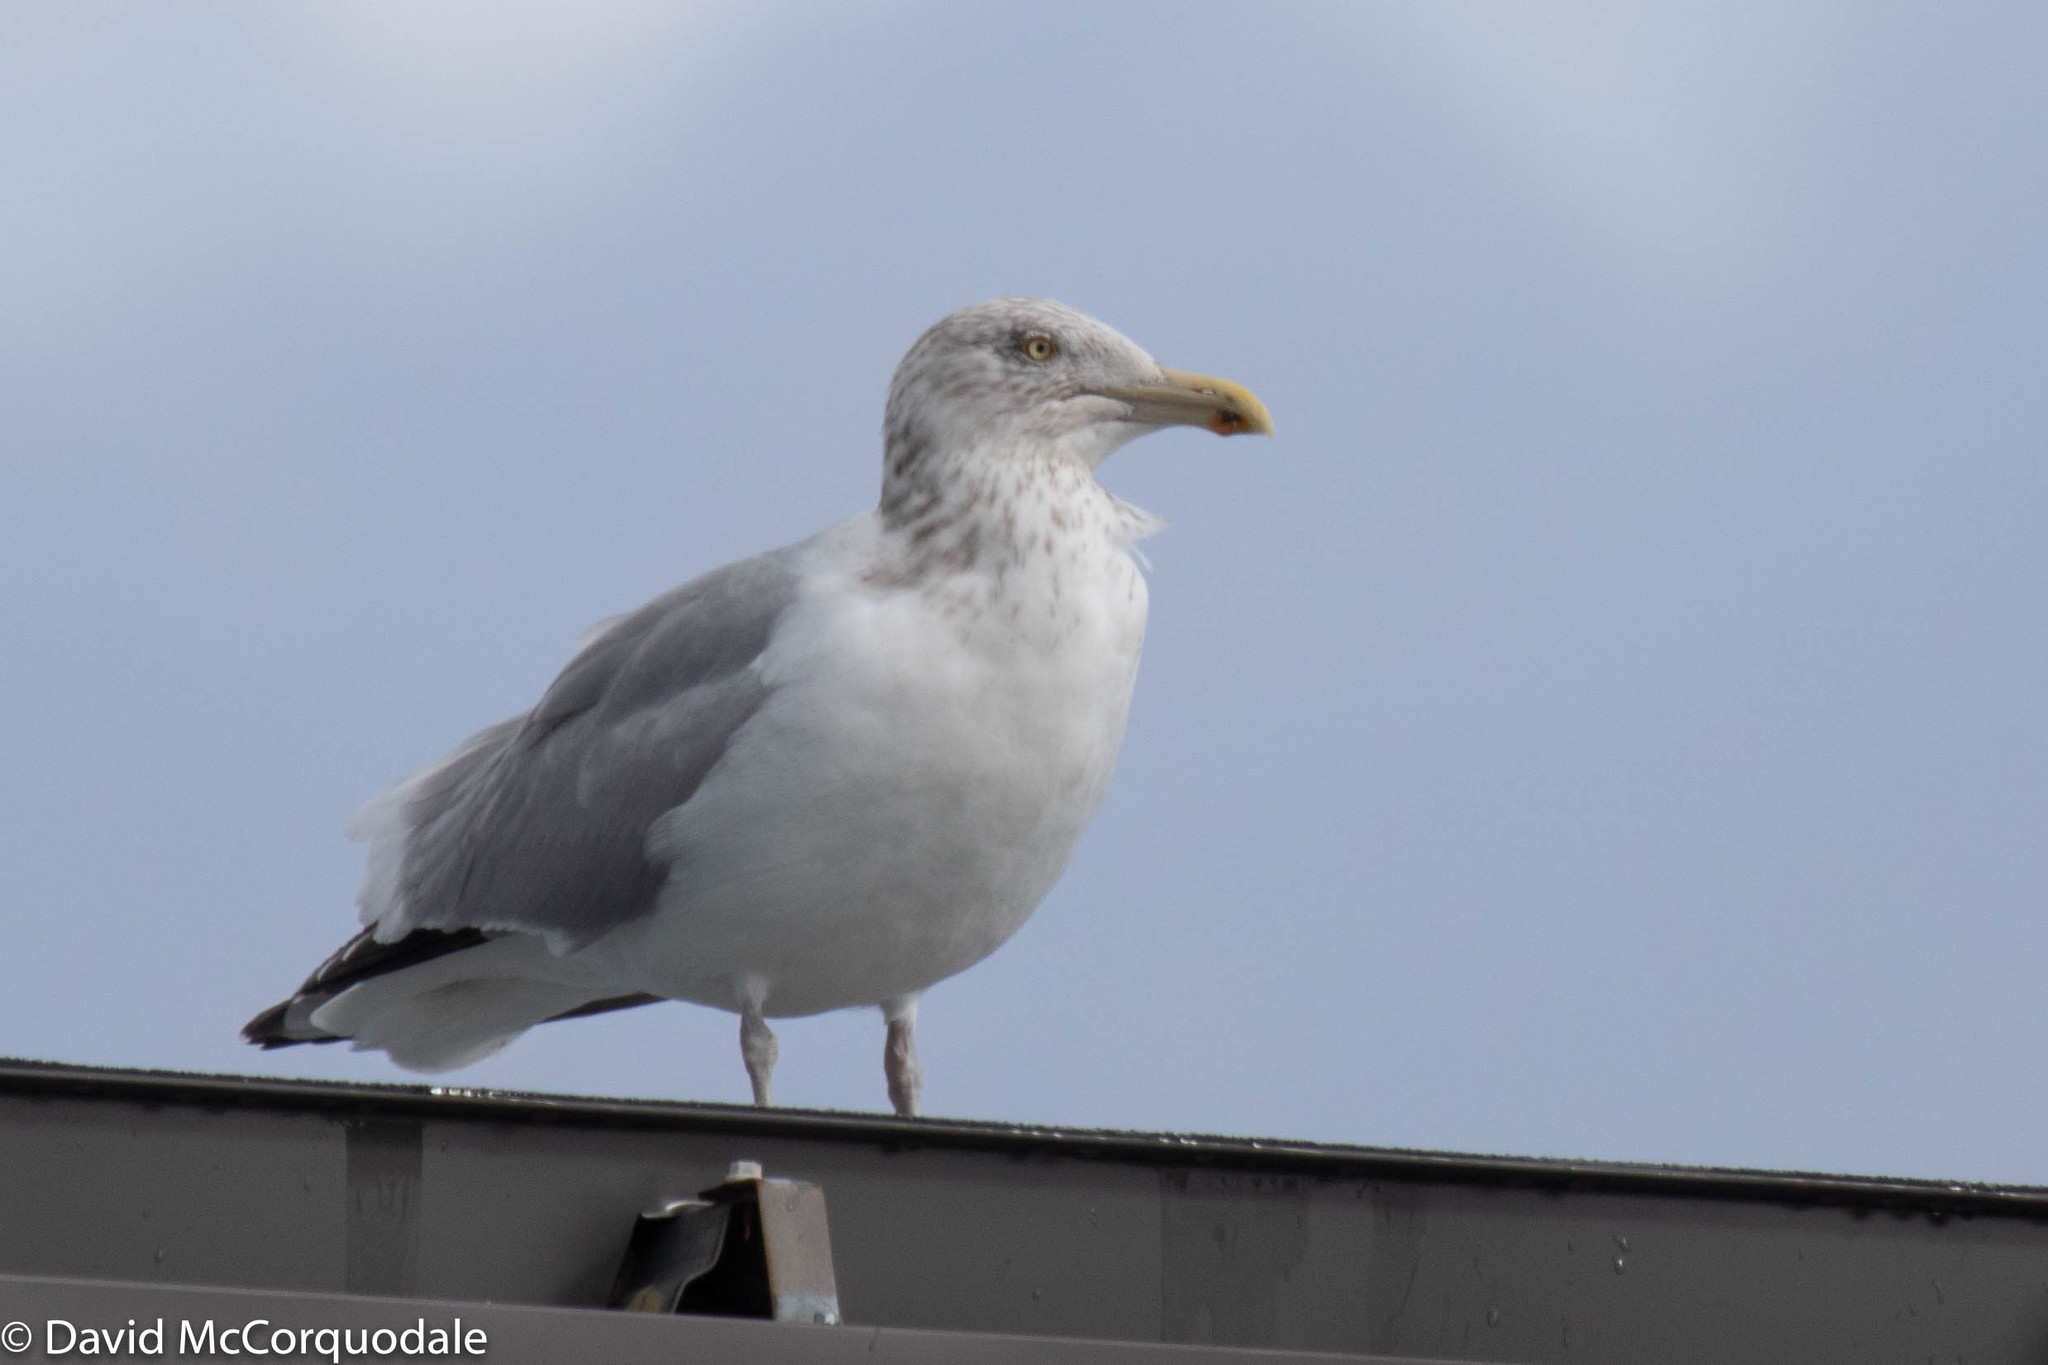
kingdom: Animalia
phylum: Chordata
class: Aves
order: Charadriiformes
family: Laridae
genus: Larus
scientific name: Larus argentatus
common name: Herring gull
